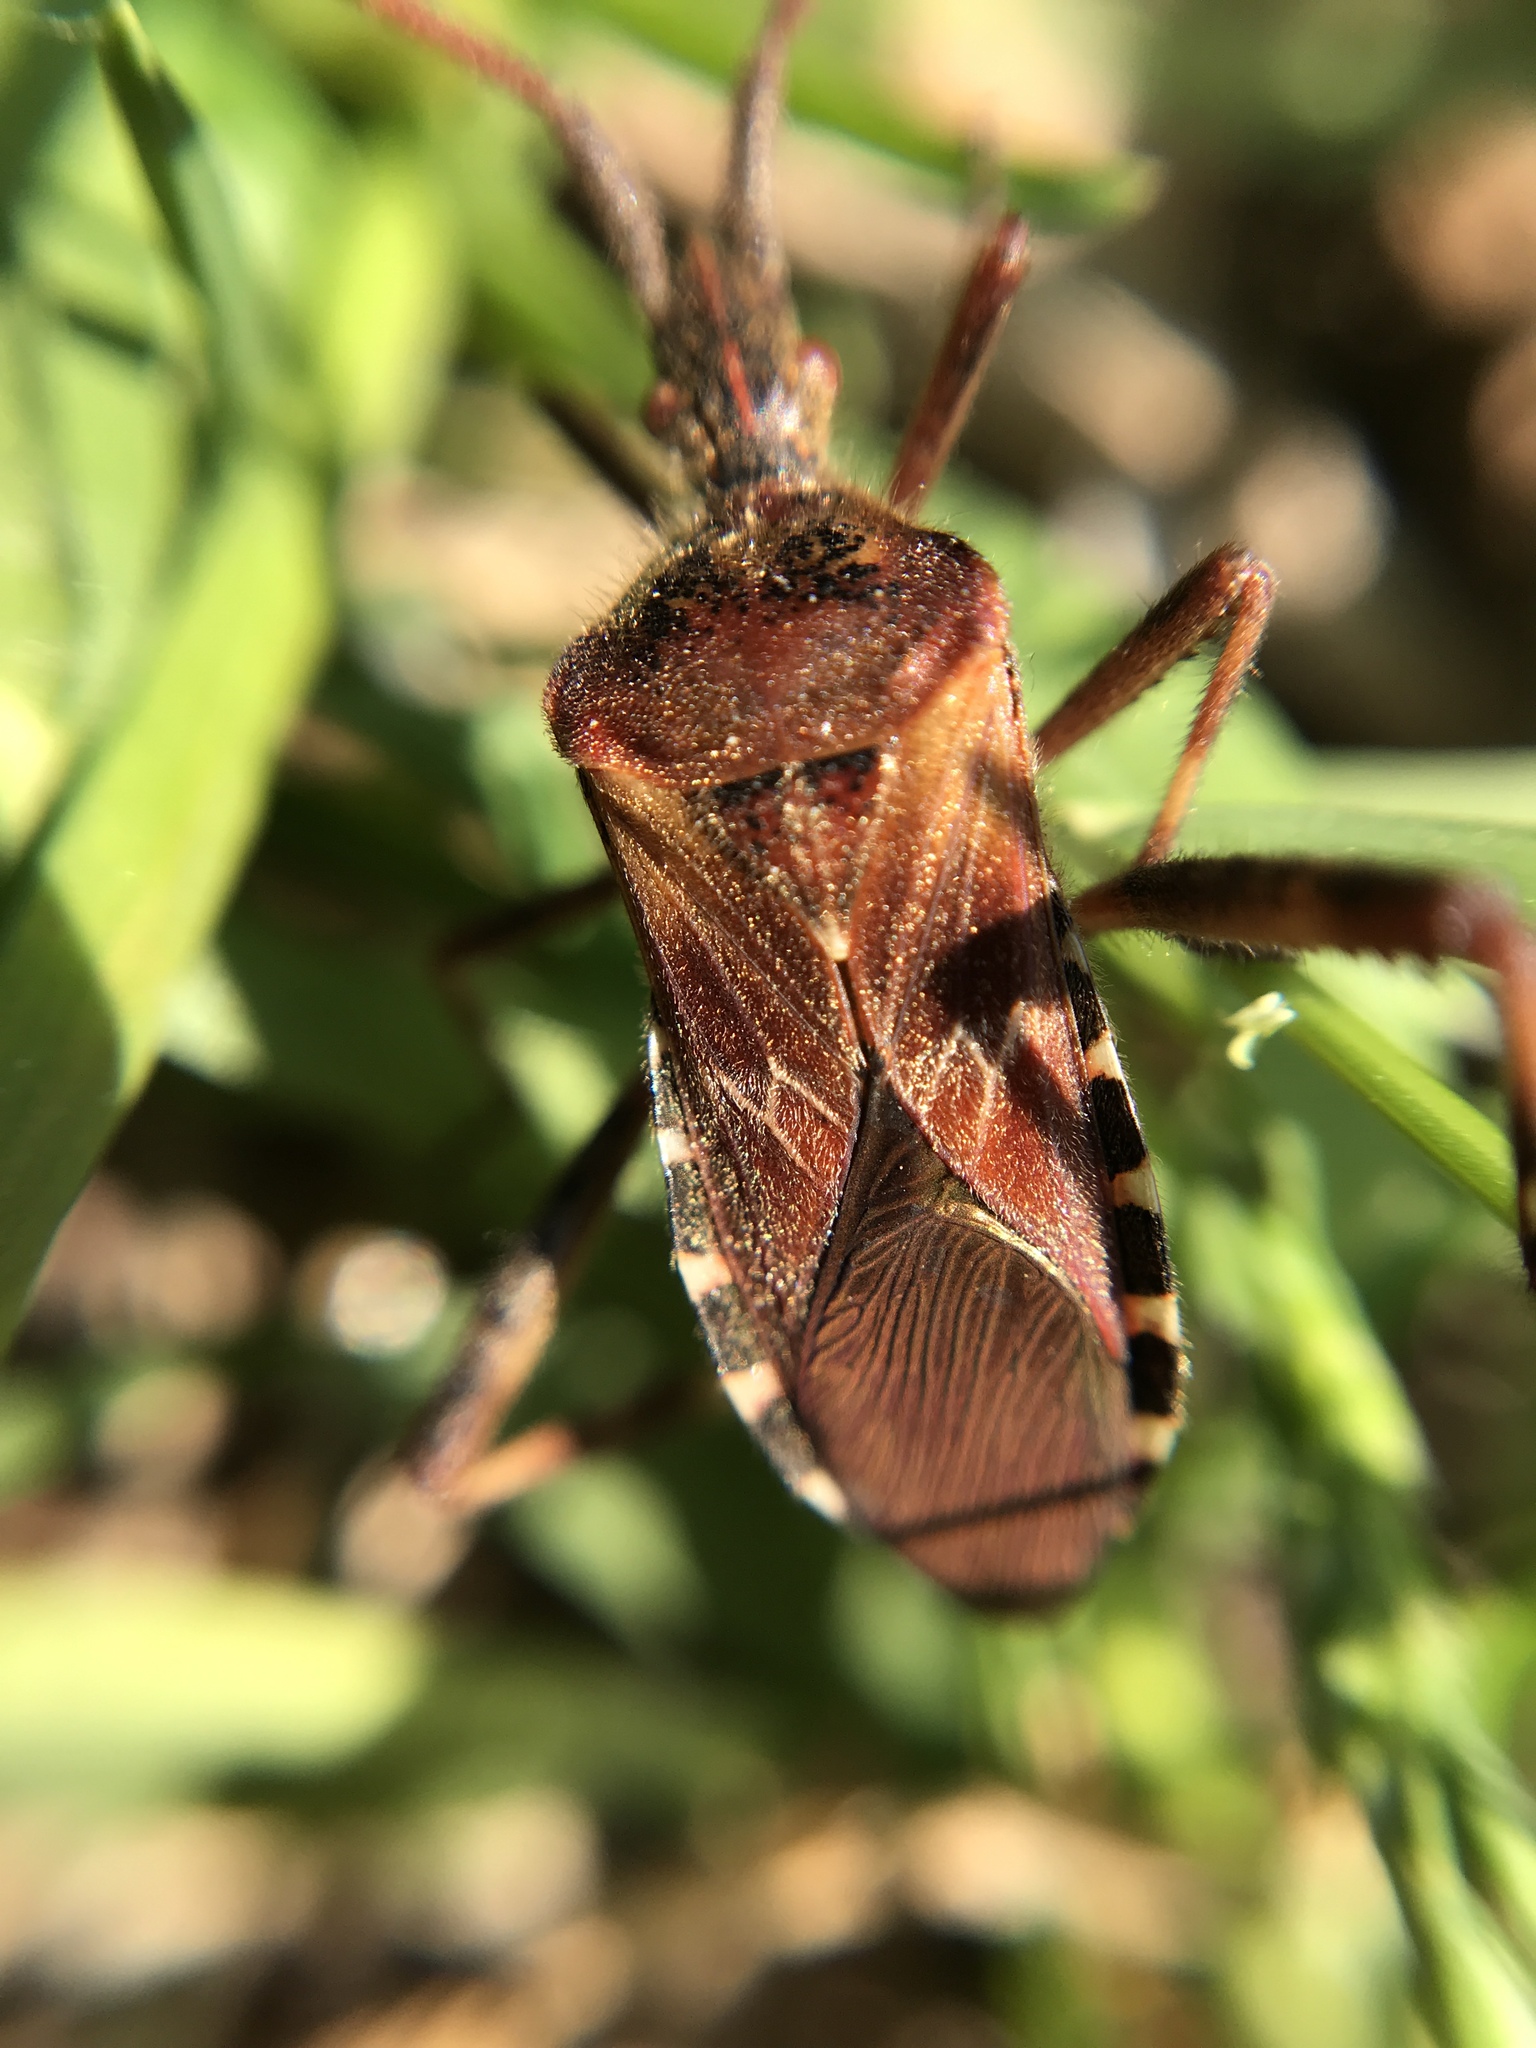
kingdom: Animalia
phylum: Arthropoda
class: Insecta
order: Hemiptera
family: Coreidae
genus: Leptoglossus
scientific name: Leptoglossus occidentalis
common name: Western conifer-seed bug
